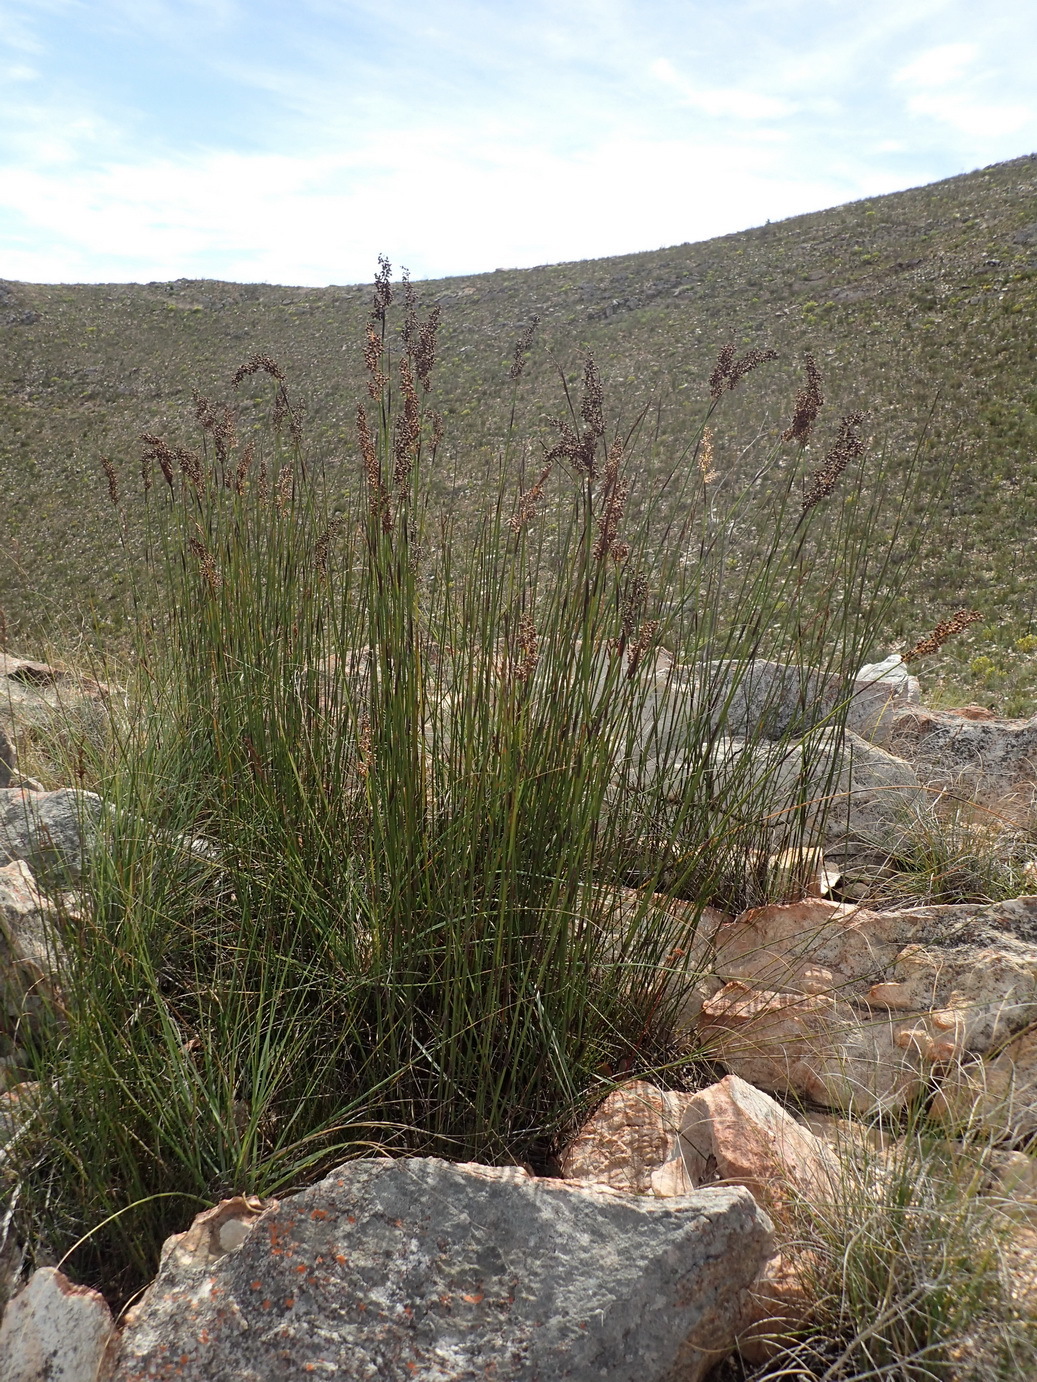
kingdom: Plantae
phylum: Tracheophyta
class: Liliopsida
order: Poales
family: Restionaceae
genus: Cannomois
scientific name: Cannomois scirpoides
